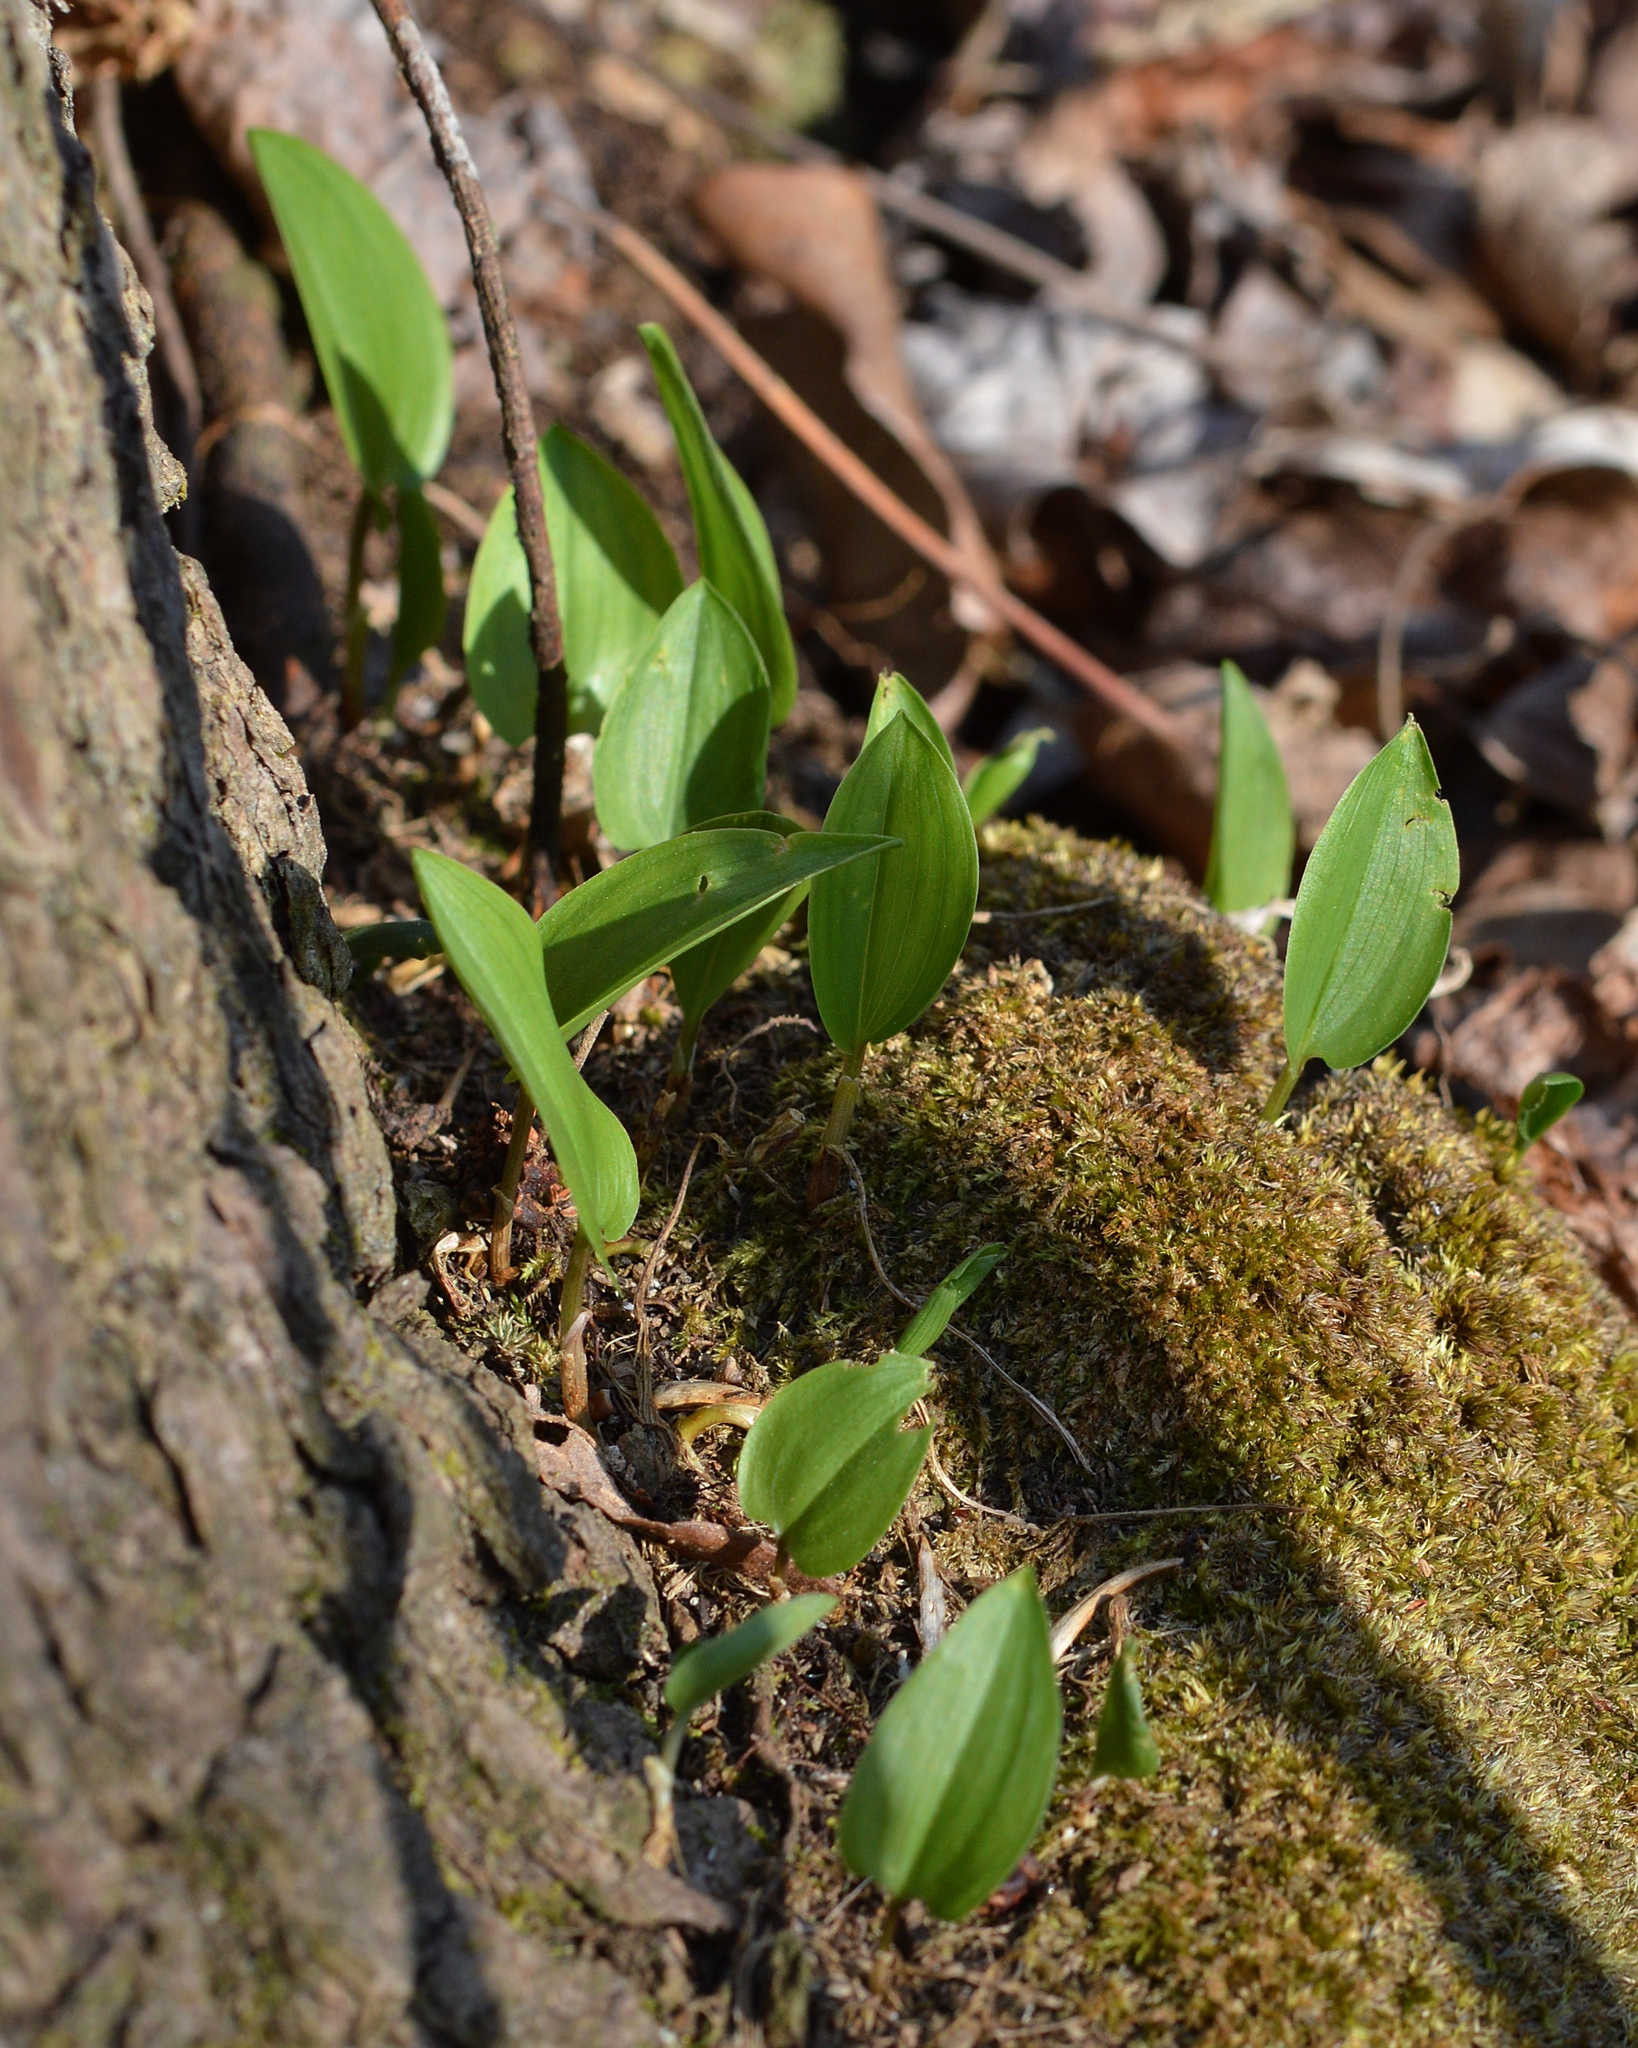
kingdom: Plantae
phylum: Tracheophyta
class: Liliopsida
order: Asparagales
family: Asparagaceae
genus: Maianthemum
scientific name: Maianthemum canadense
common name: False lily-of-the-valley
